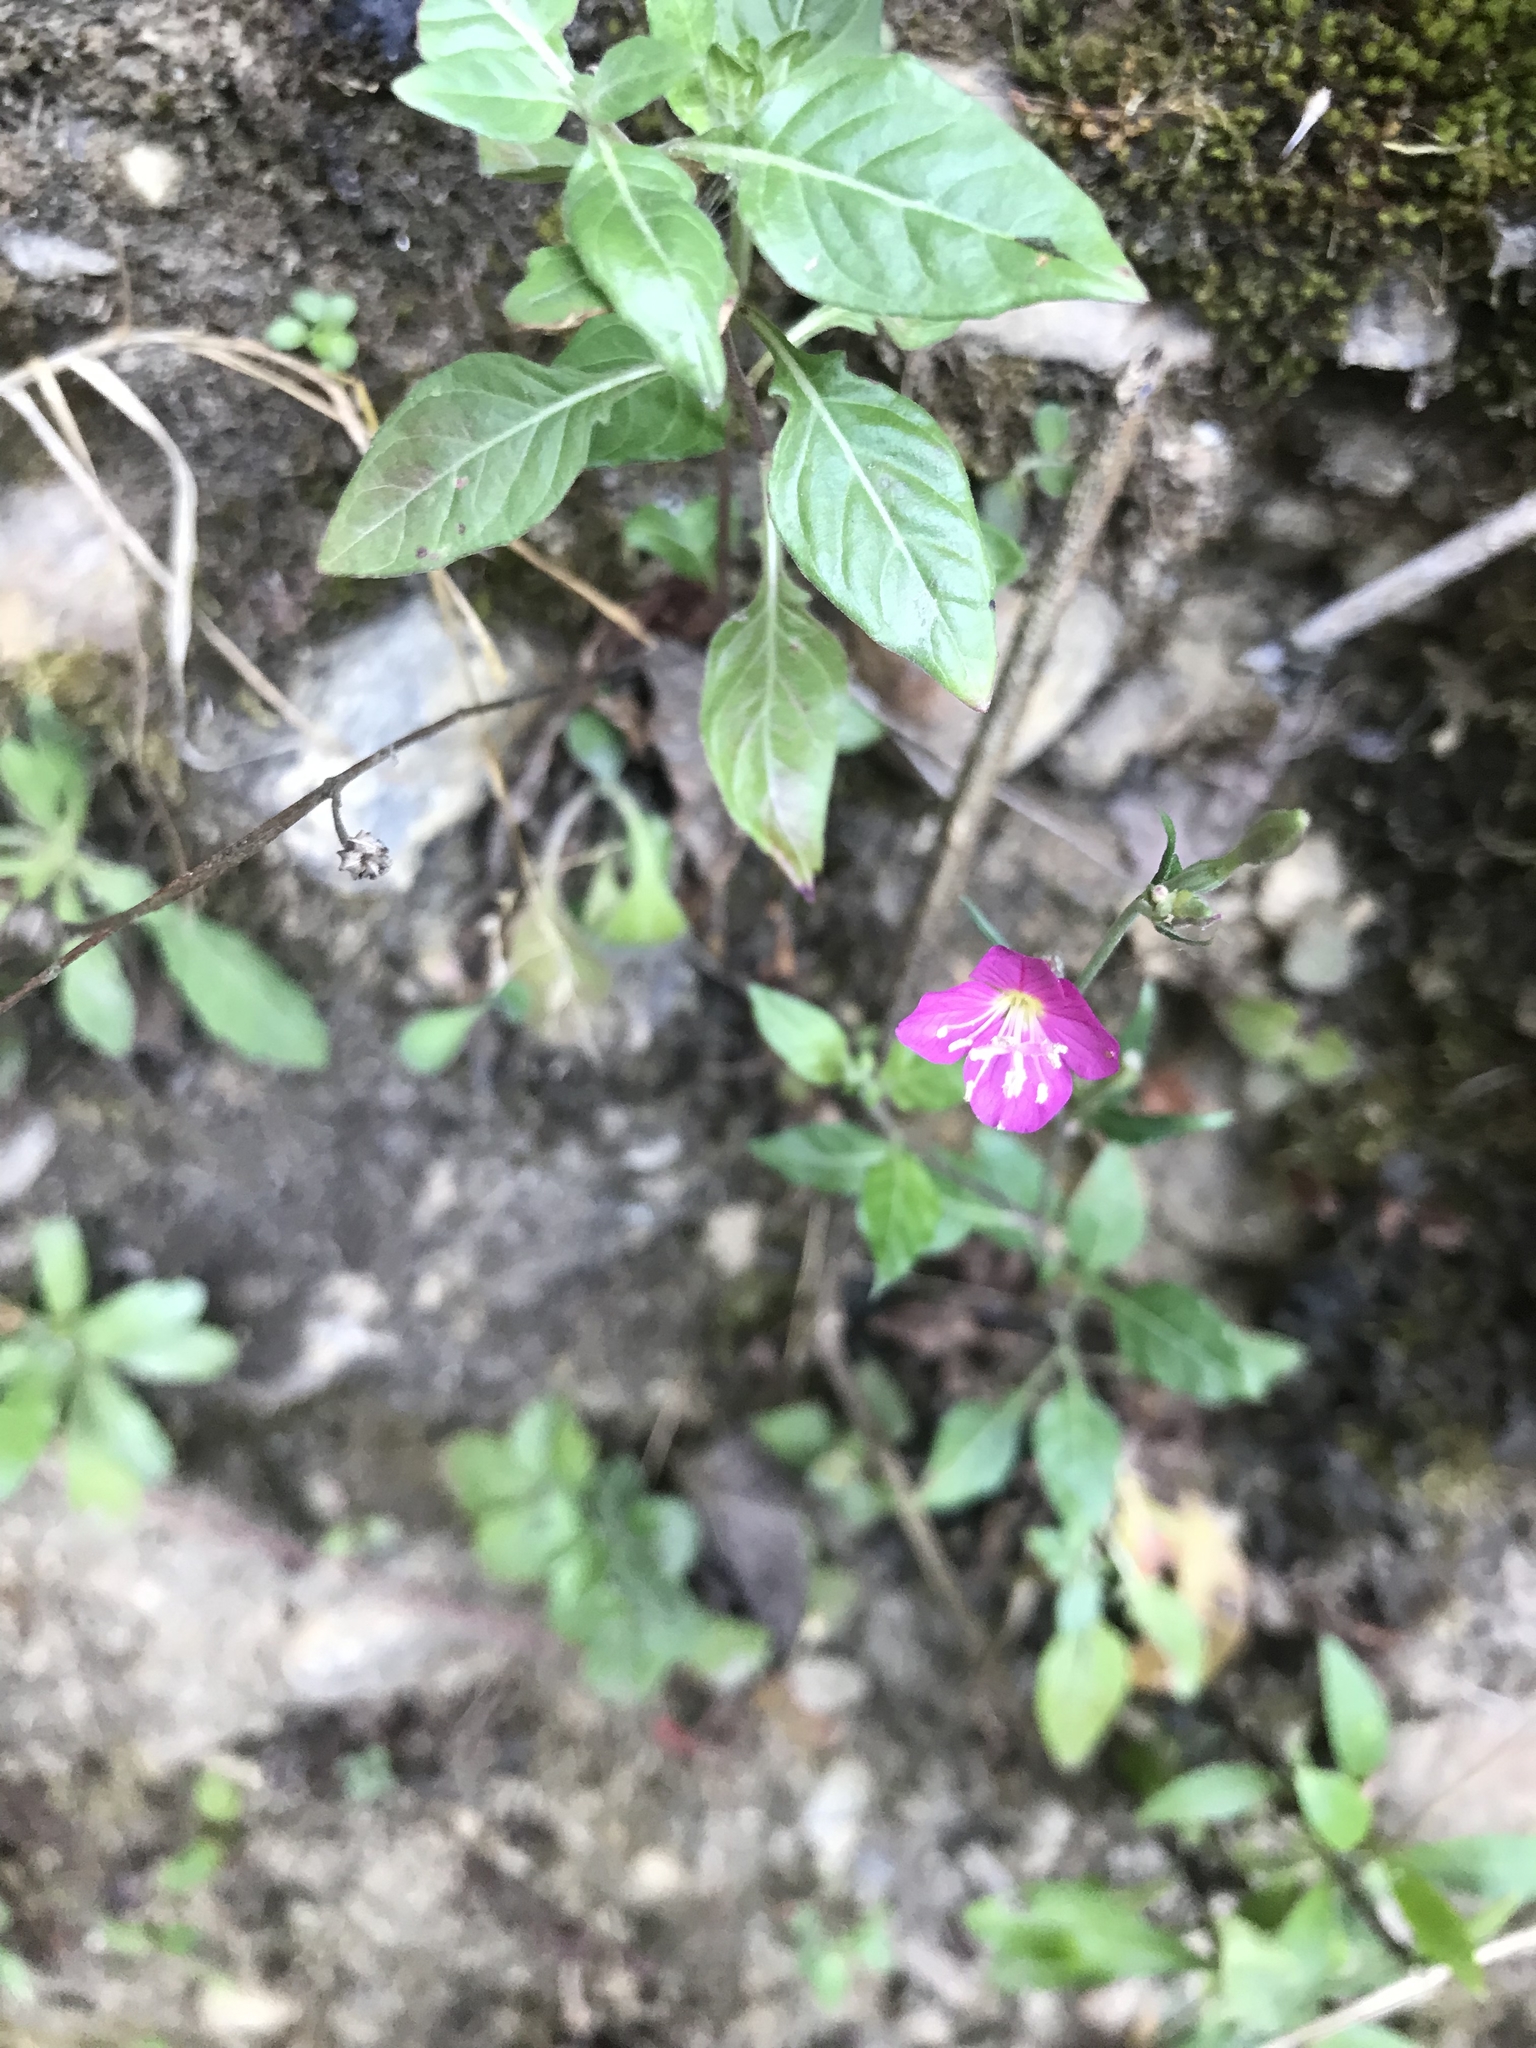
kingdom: Plantae
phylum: Tracheophyta
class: Magnoliopsida
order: Myrtales
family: Onagraceae
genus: Oenothera
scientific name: Oenothera rosea
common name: Rosy evening-primrose
